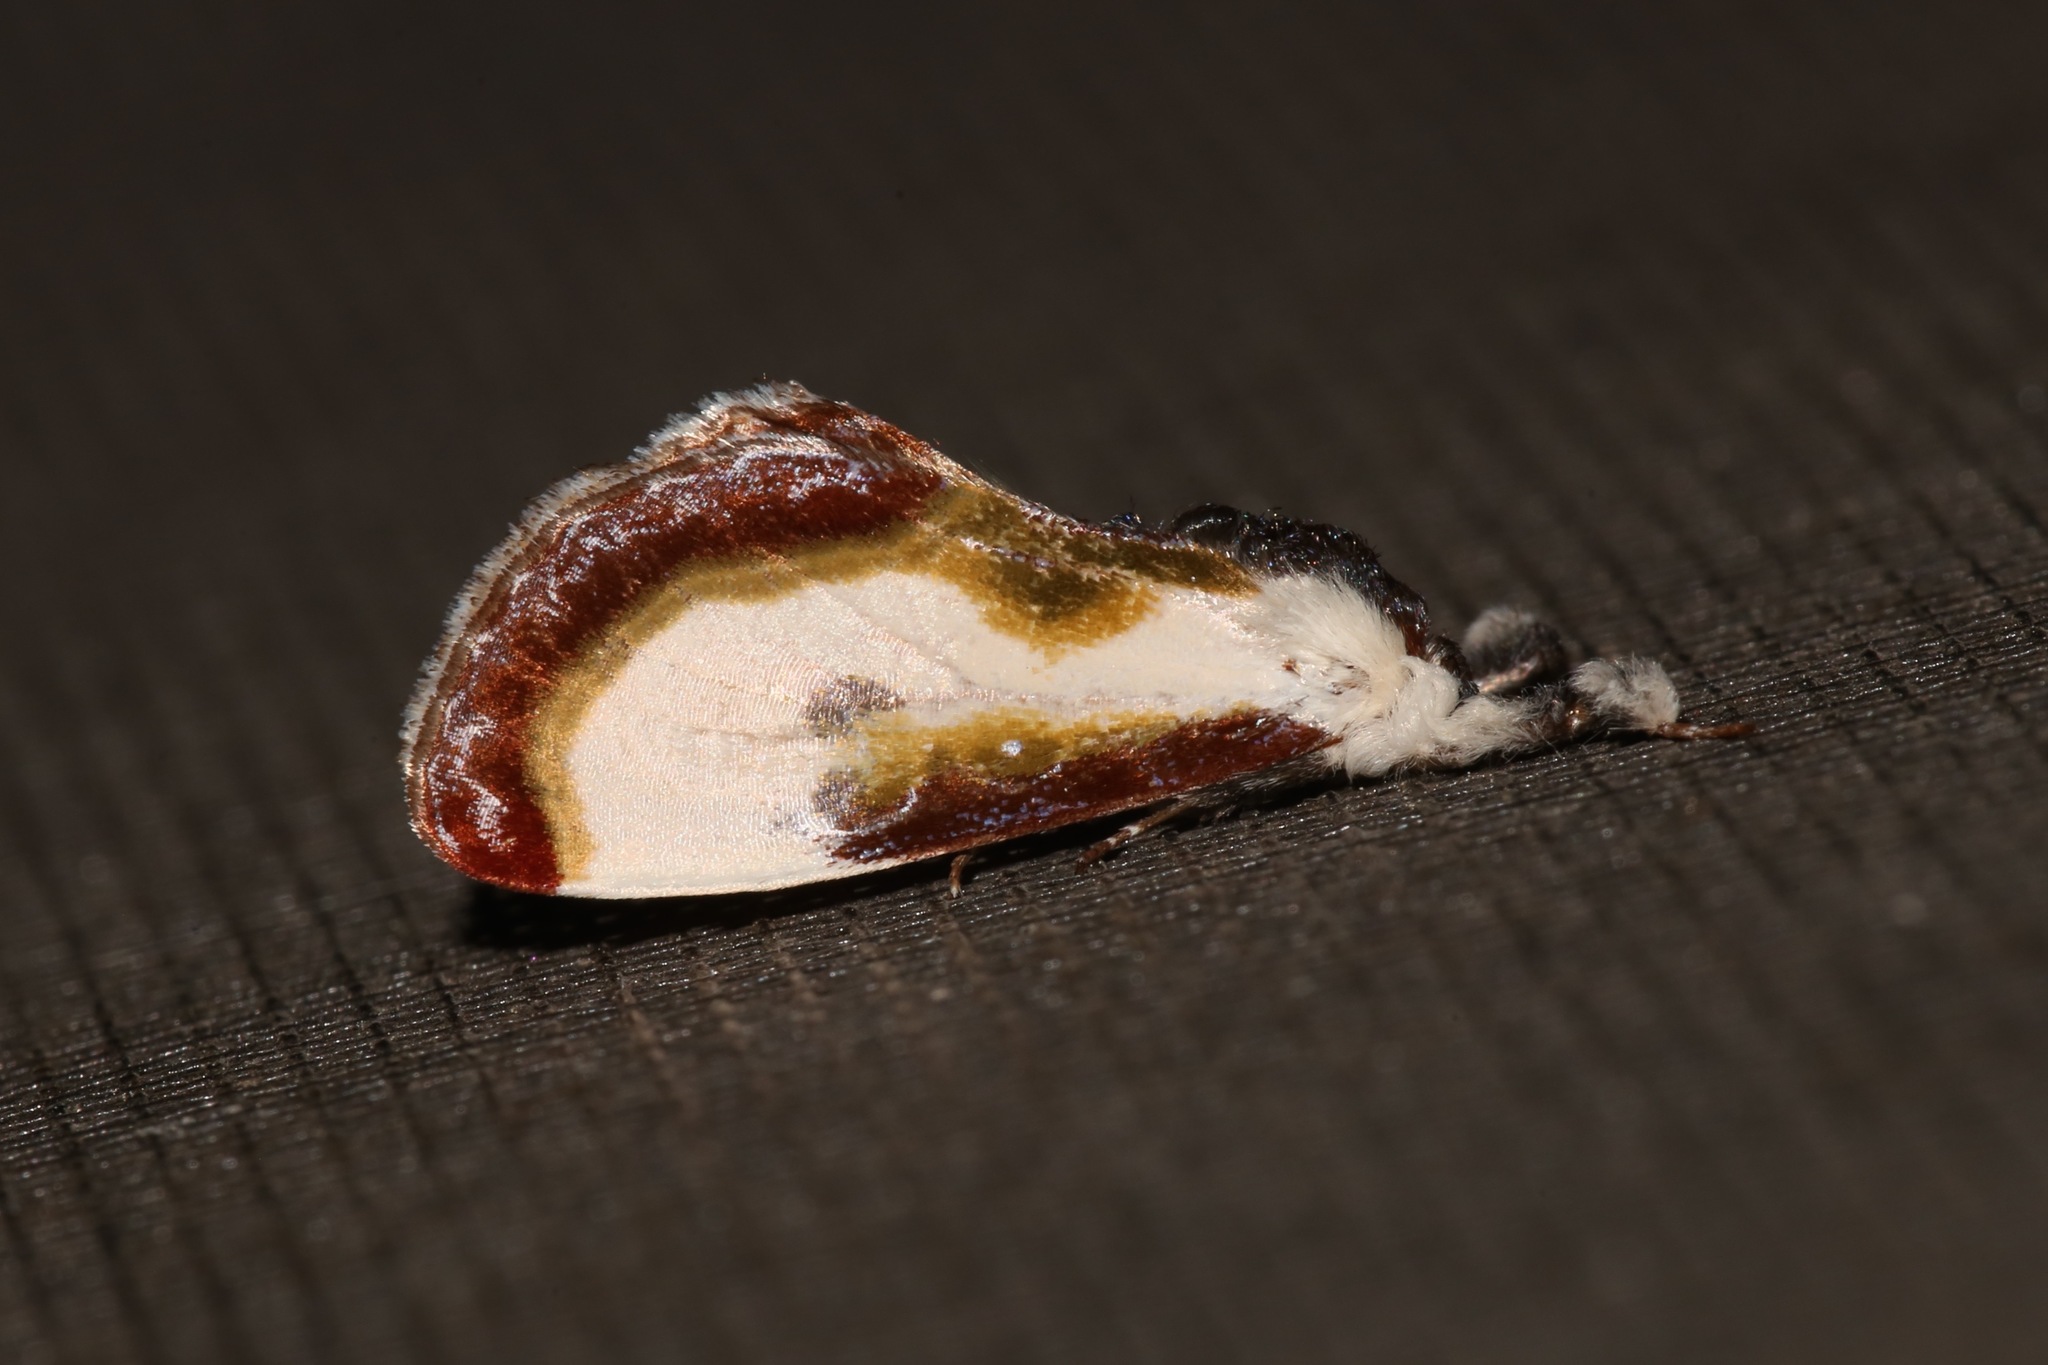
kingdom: Animalia
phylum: Arthropoda
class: Insecta
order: Lepidoptera
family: Noctuidae
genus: Eudryas
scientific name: Eudryas grata
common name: Beautiful wood-nymph
